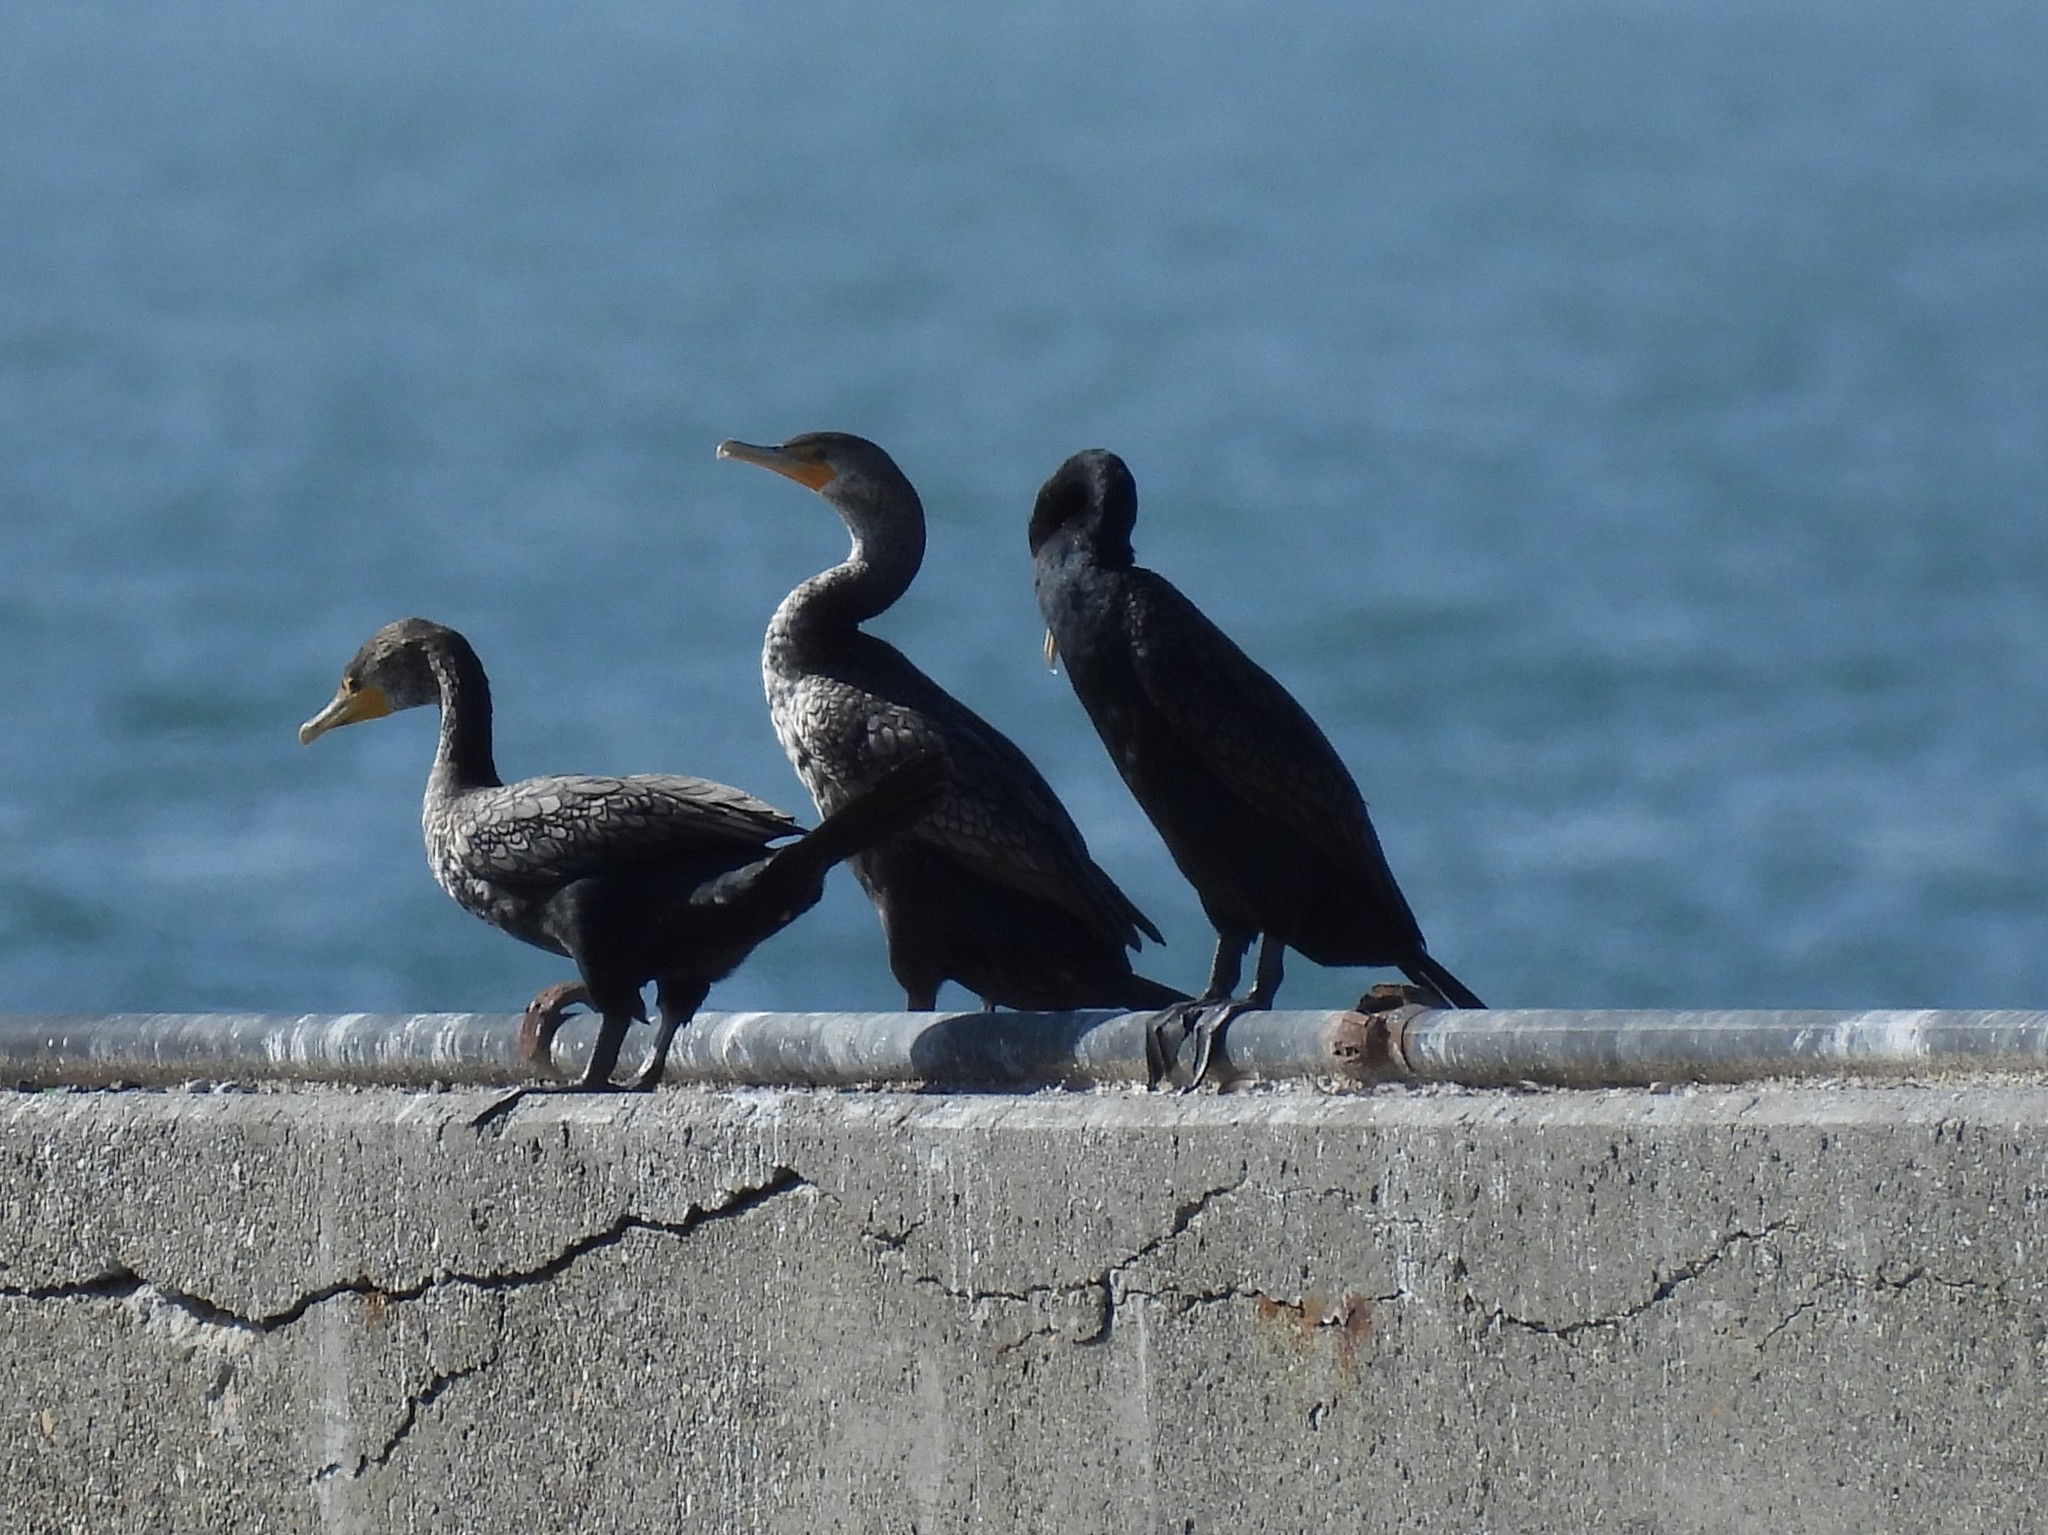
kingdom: Animalia
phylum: Chordata
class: Aves
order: Suliformes
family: Phalacrocoracidae
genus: Phalacrocorax
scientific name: Phalacrocorax auritus
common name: Double-crested cormorant
